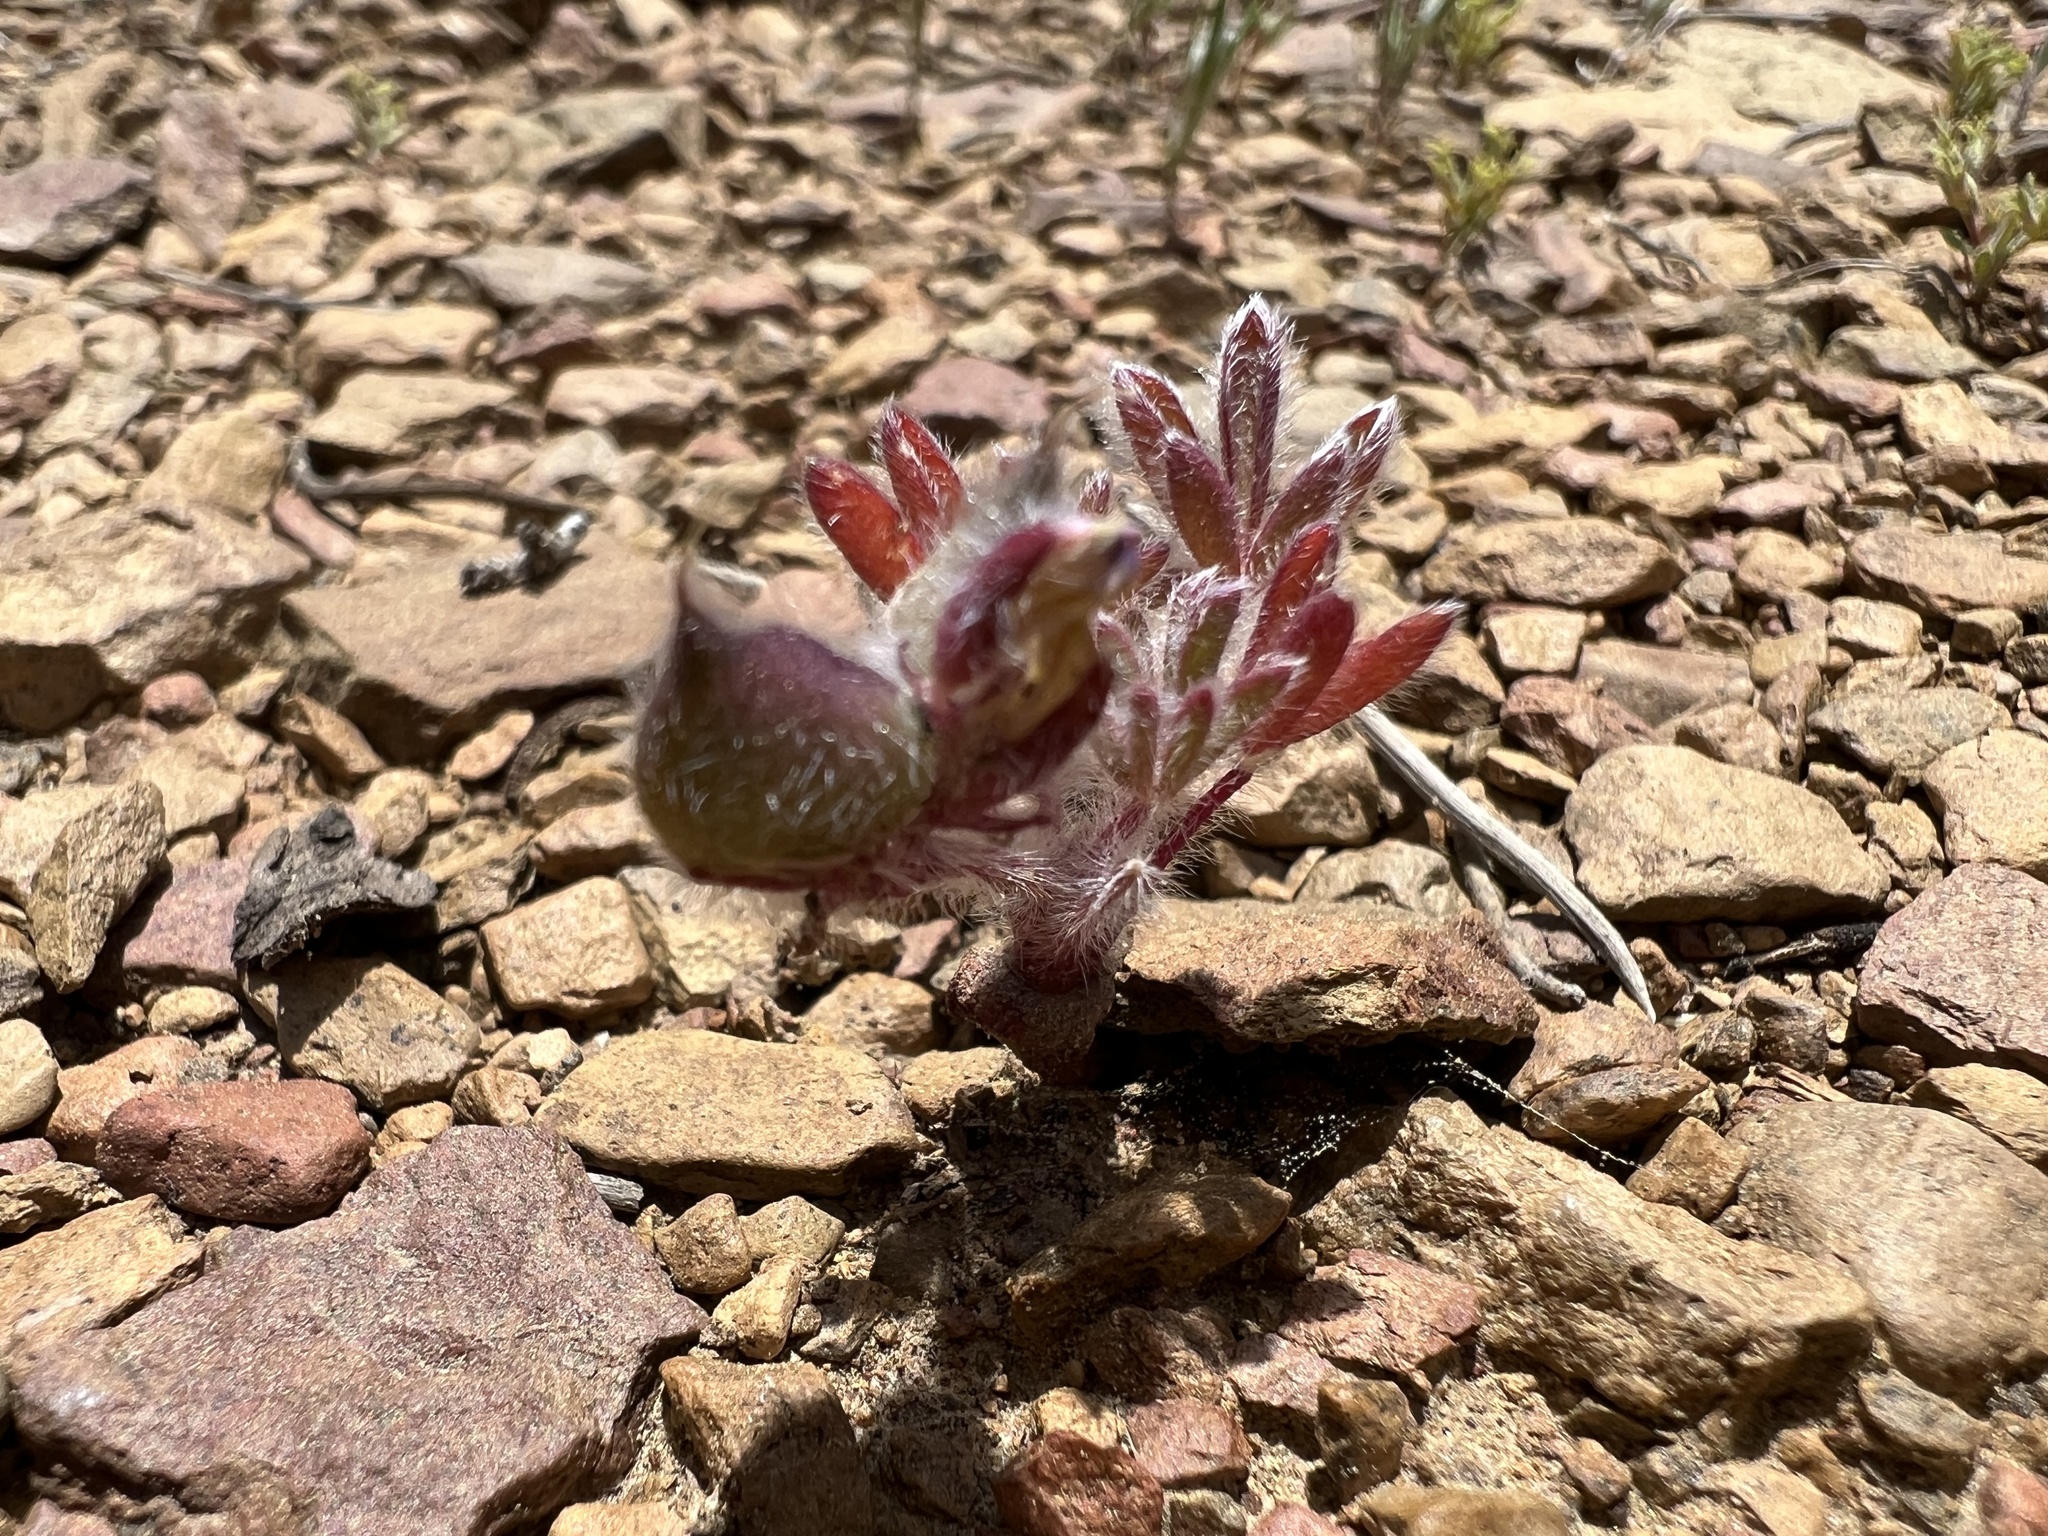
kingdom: Plantae
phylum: Tracheophyta
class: Magnoliopsida
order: Fabales
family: Fabaceae
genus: Lupinus
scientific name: Lupinus brevicaulis
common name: Sand lupine
